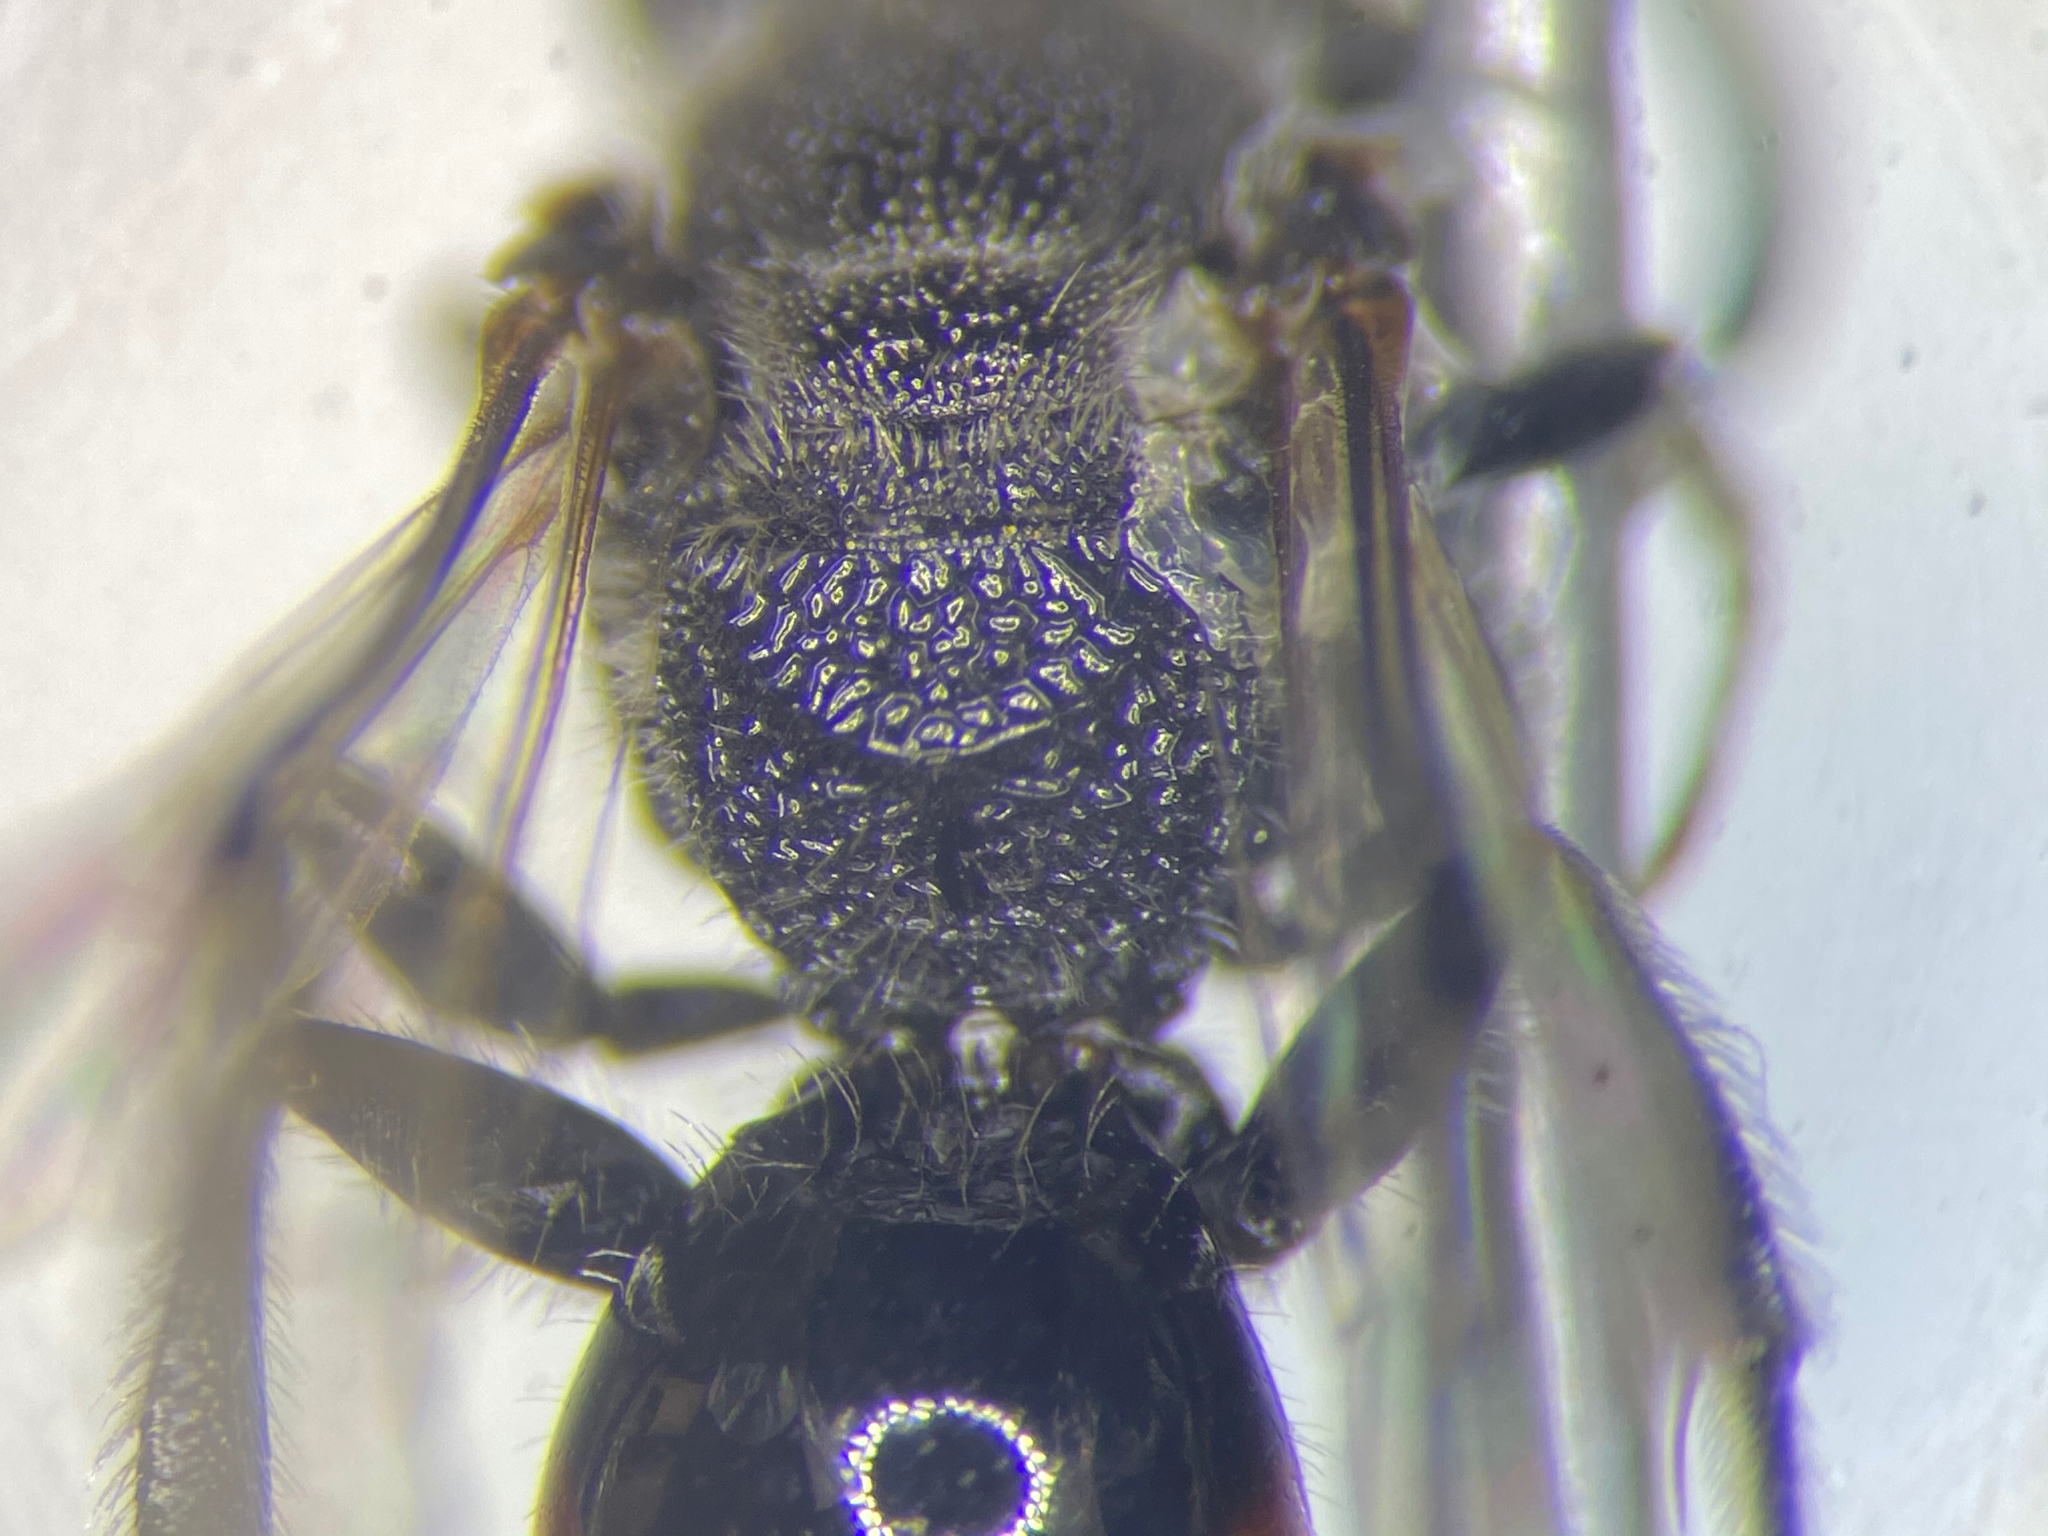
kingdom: Animalia
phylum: Arthropoda
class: Insecta
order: Hymenoptera
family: Halictidae
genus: Sphecodes
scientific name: Sphecodes davisii
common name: Davis's cuckoo sweat bee
